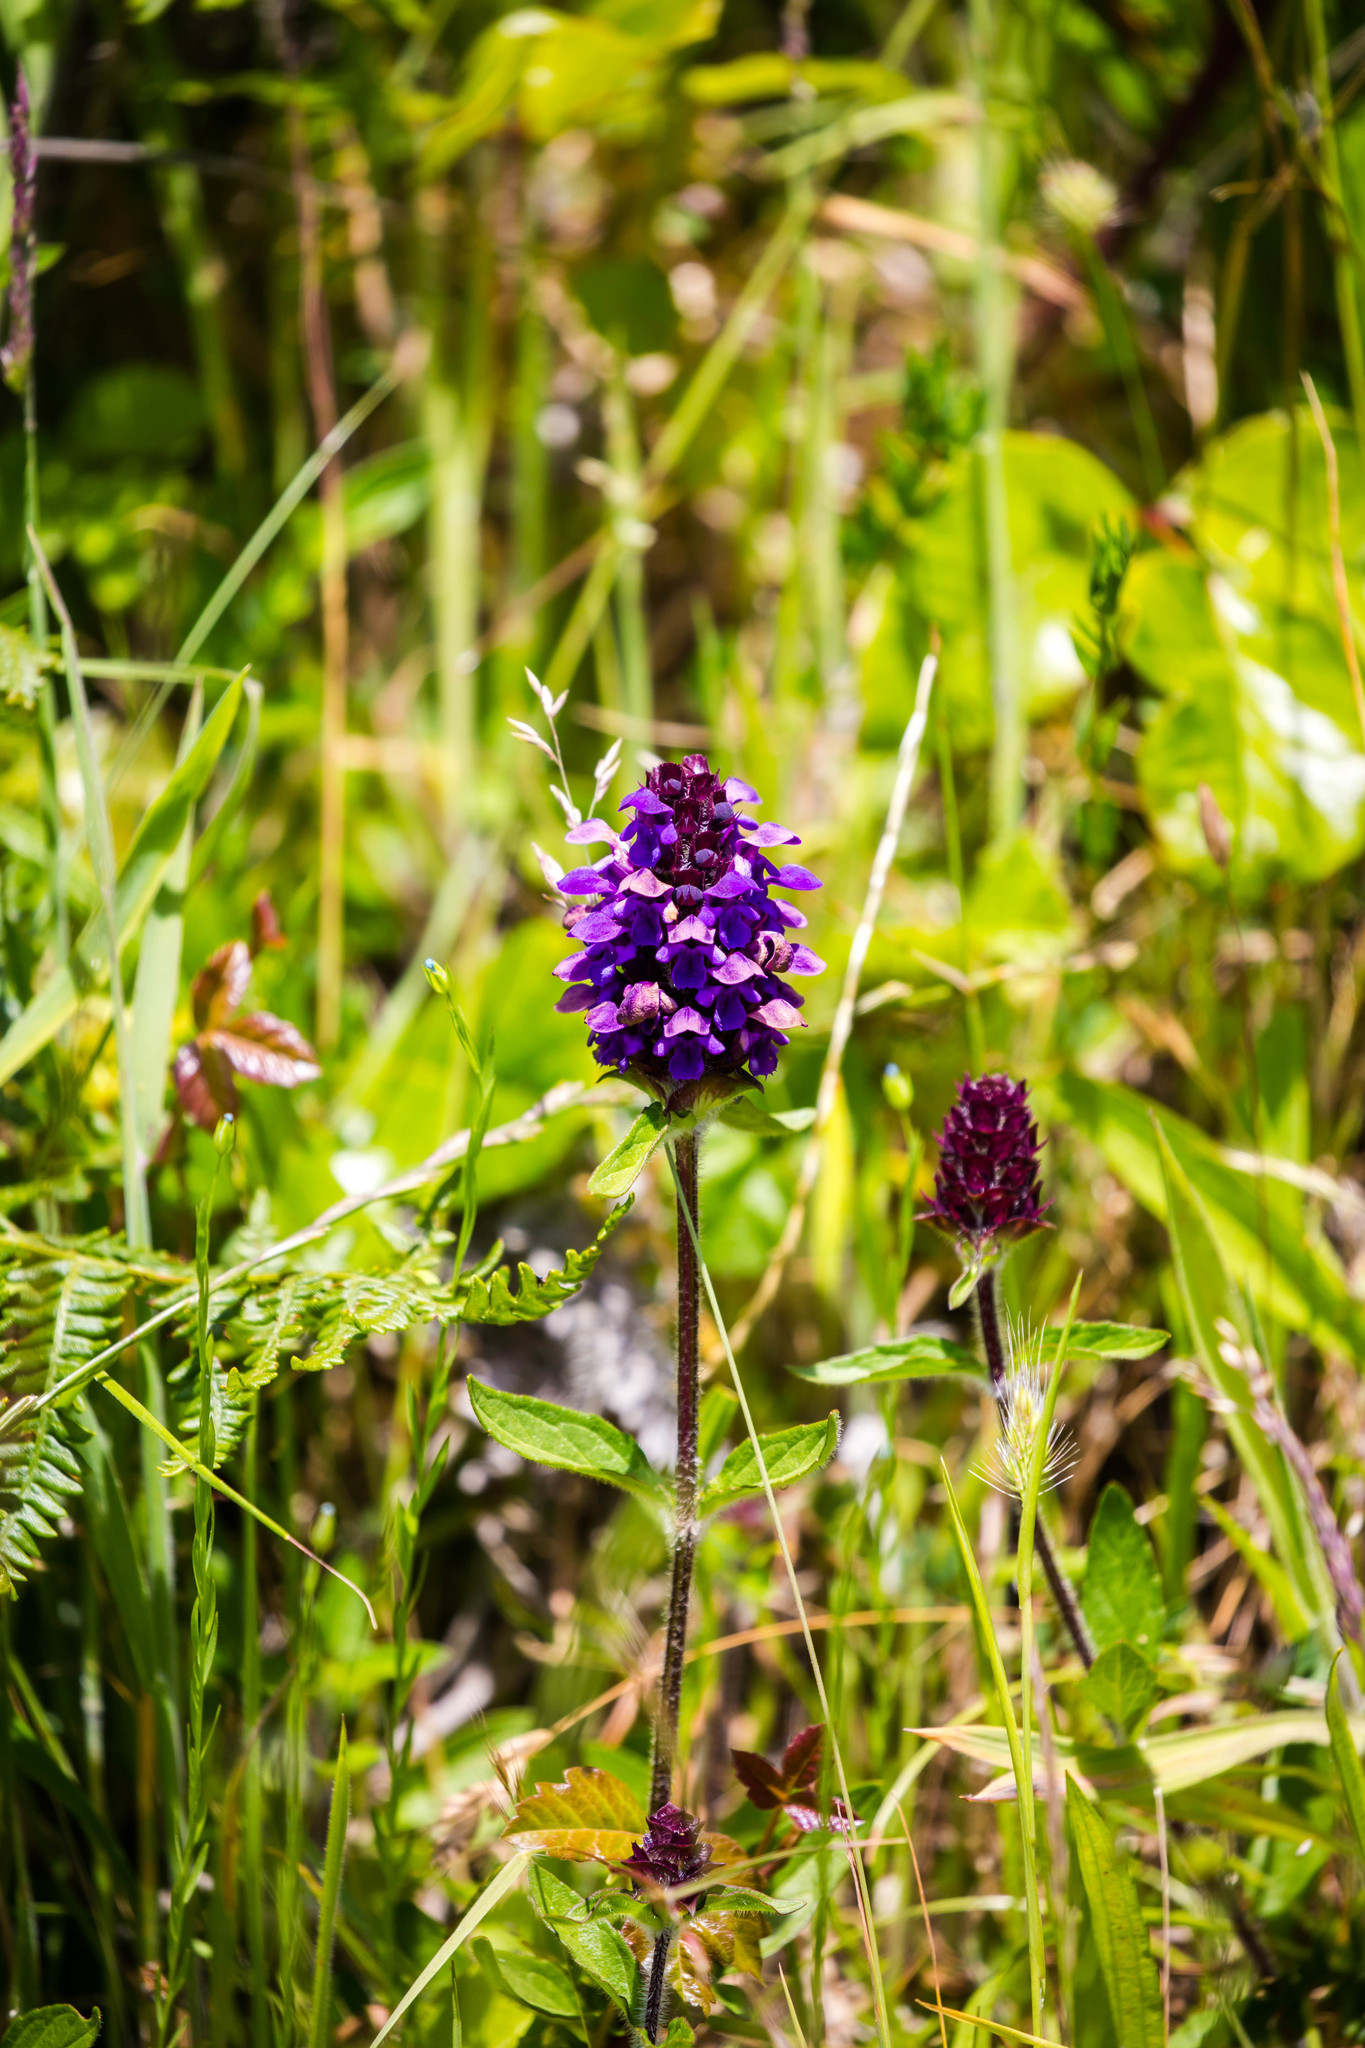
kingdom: Plantae
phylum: Tracheophyta
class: Magnoliopsida
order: Lamiales
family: Lamiaceae
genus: Prunella
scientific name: Prunella vulgaris
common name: Heal-all
